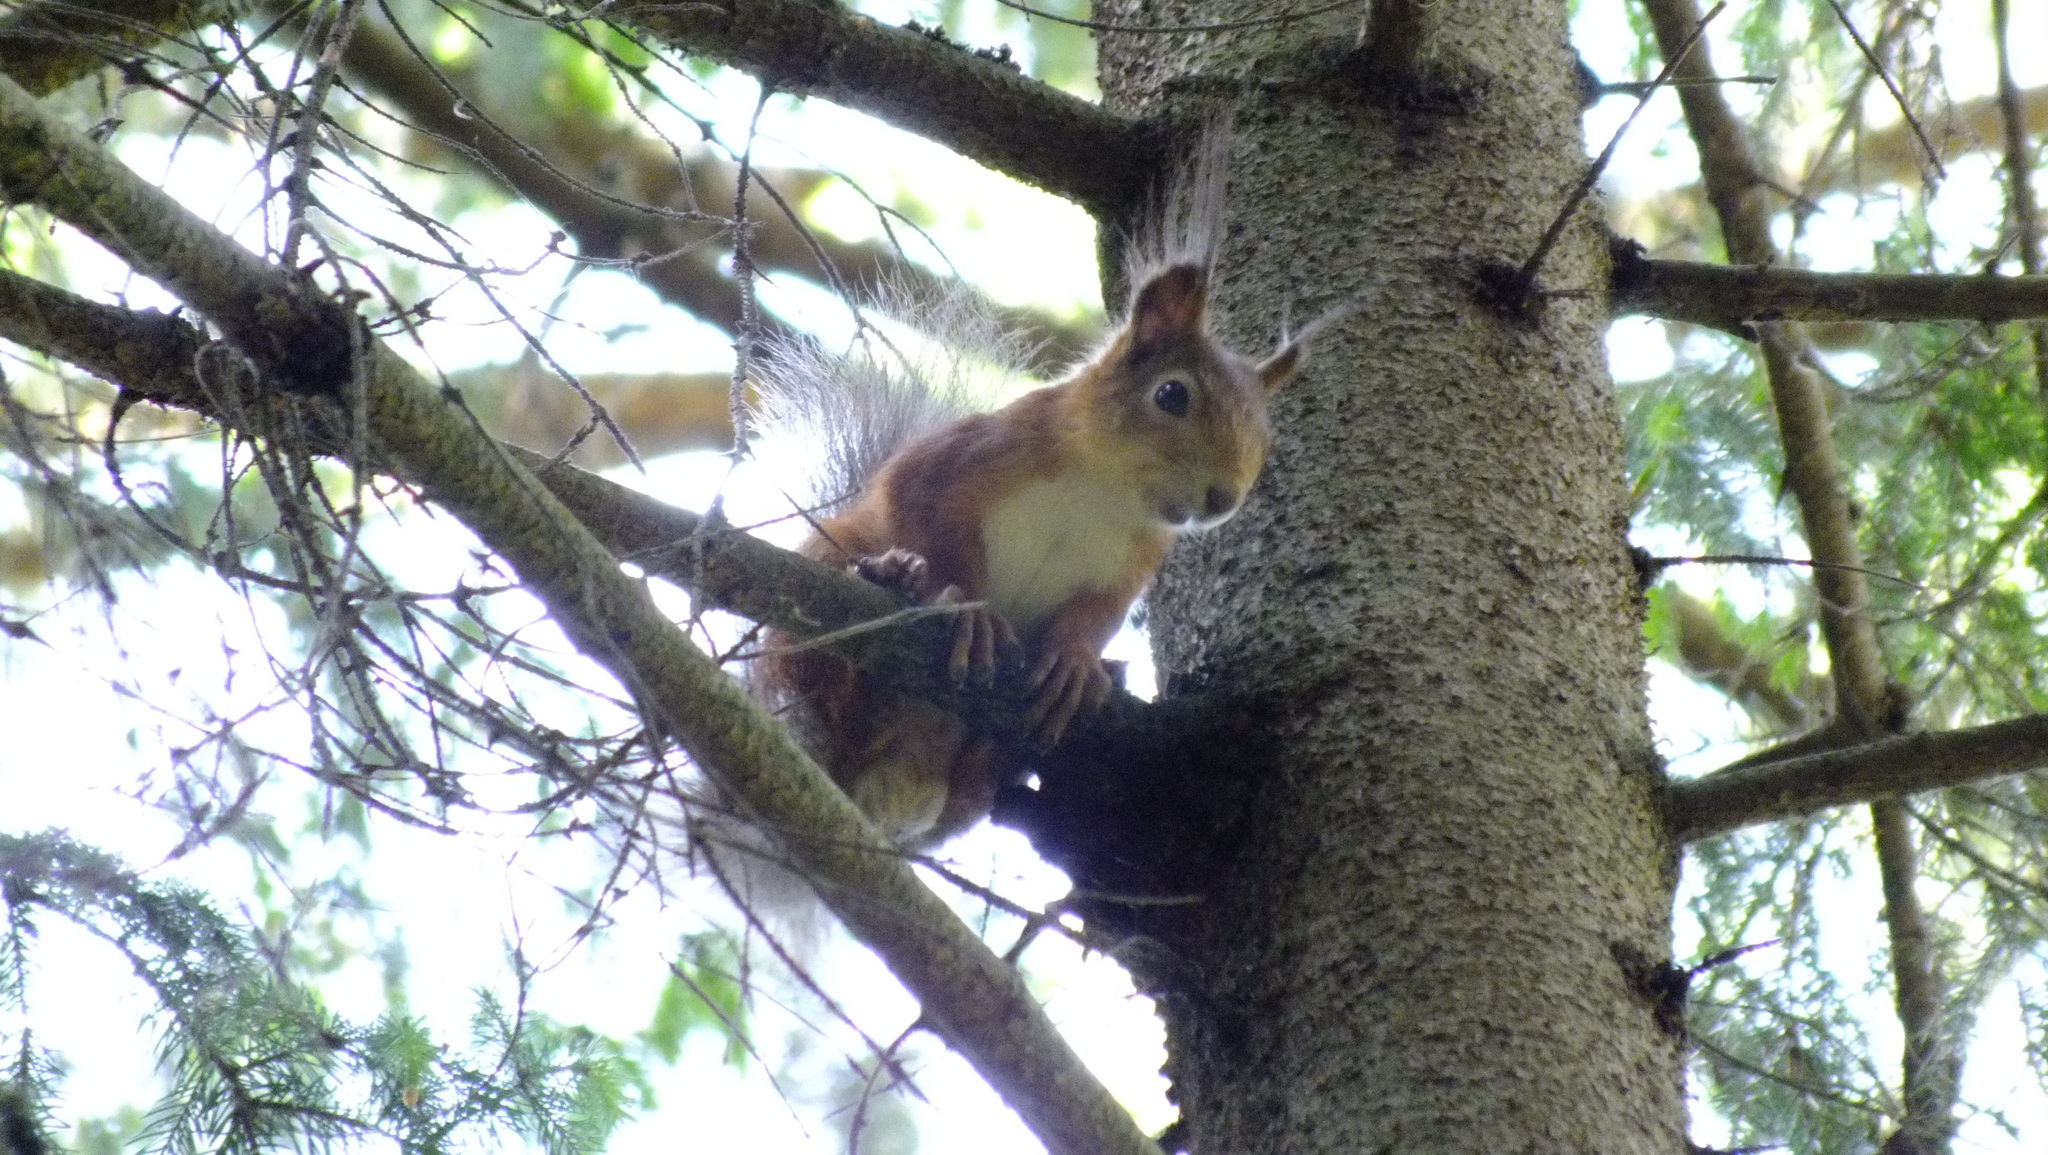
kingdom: Animalia
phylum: Chordata
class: Mammalia
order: Rodentia
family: Sciuridae
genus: Sciurus
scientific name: Sciurus vulgaris
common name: Eurasian red squirrel
